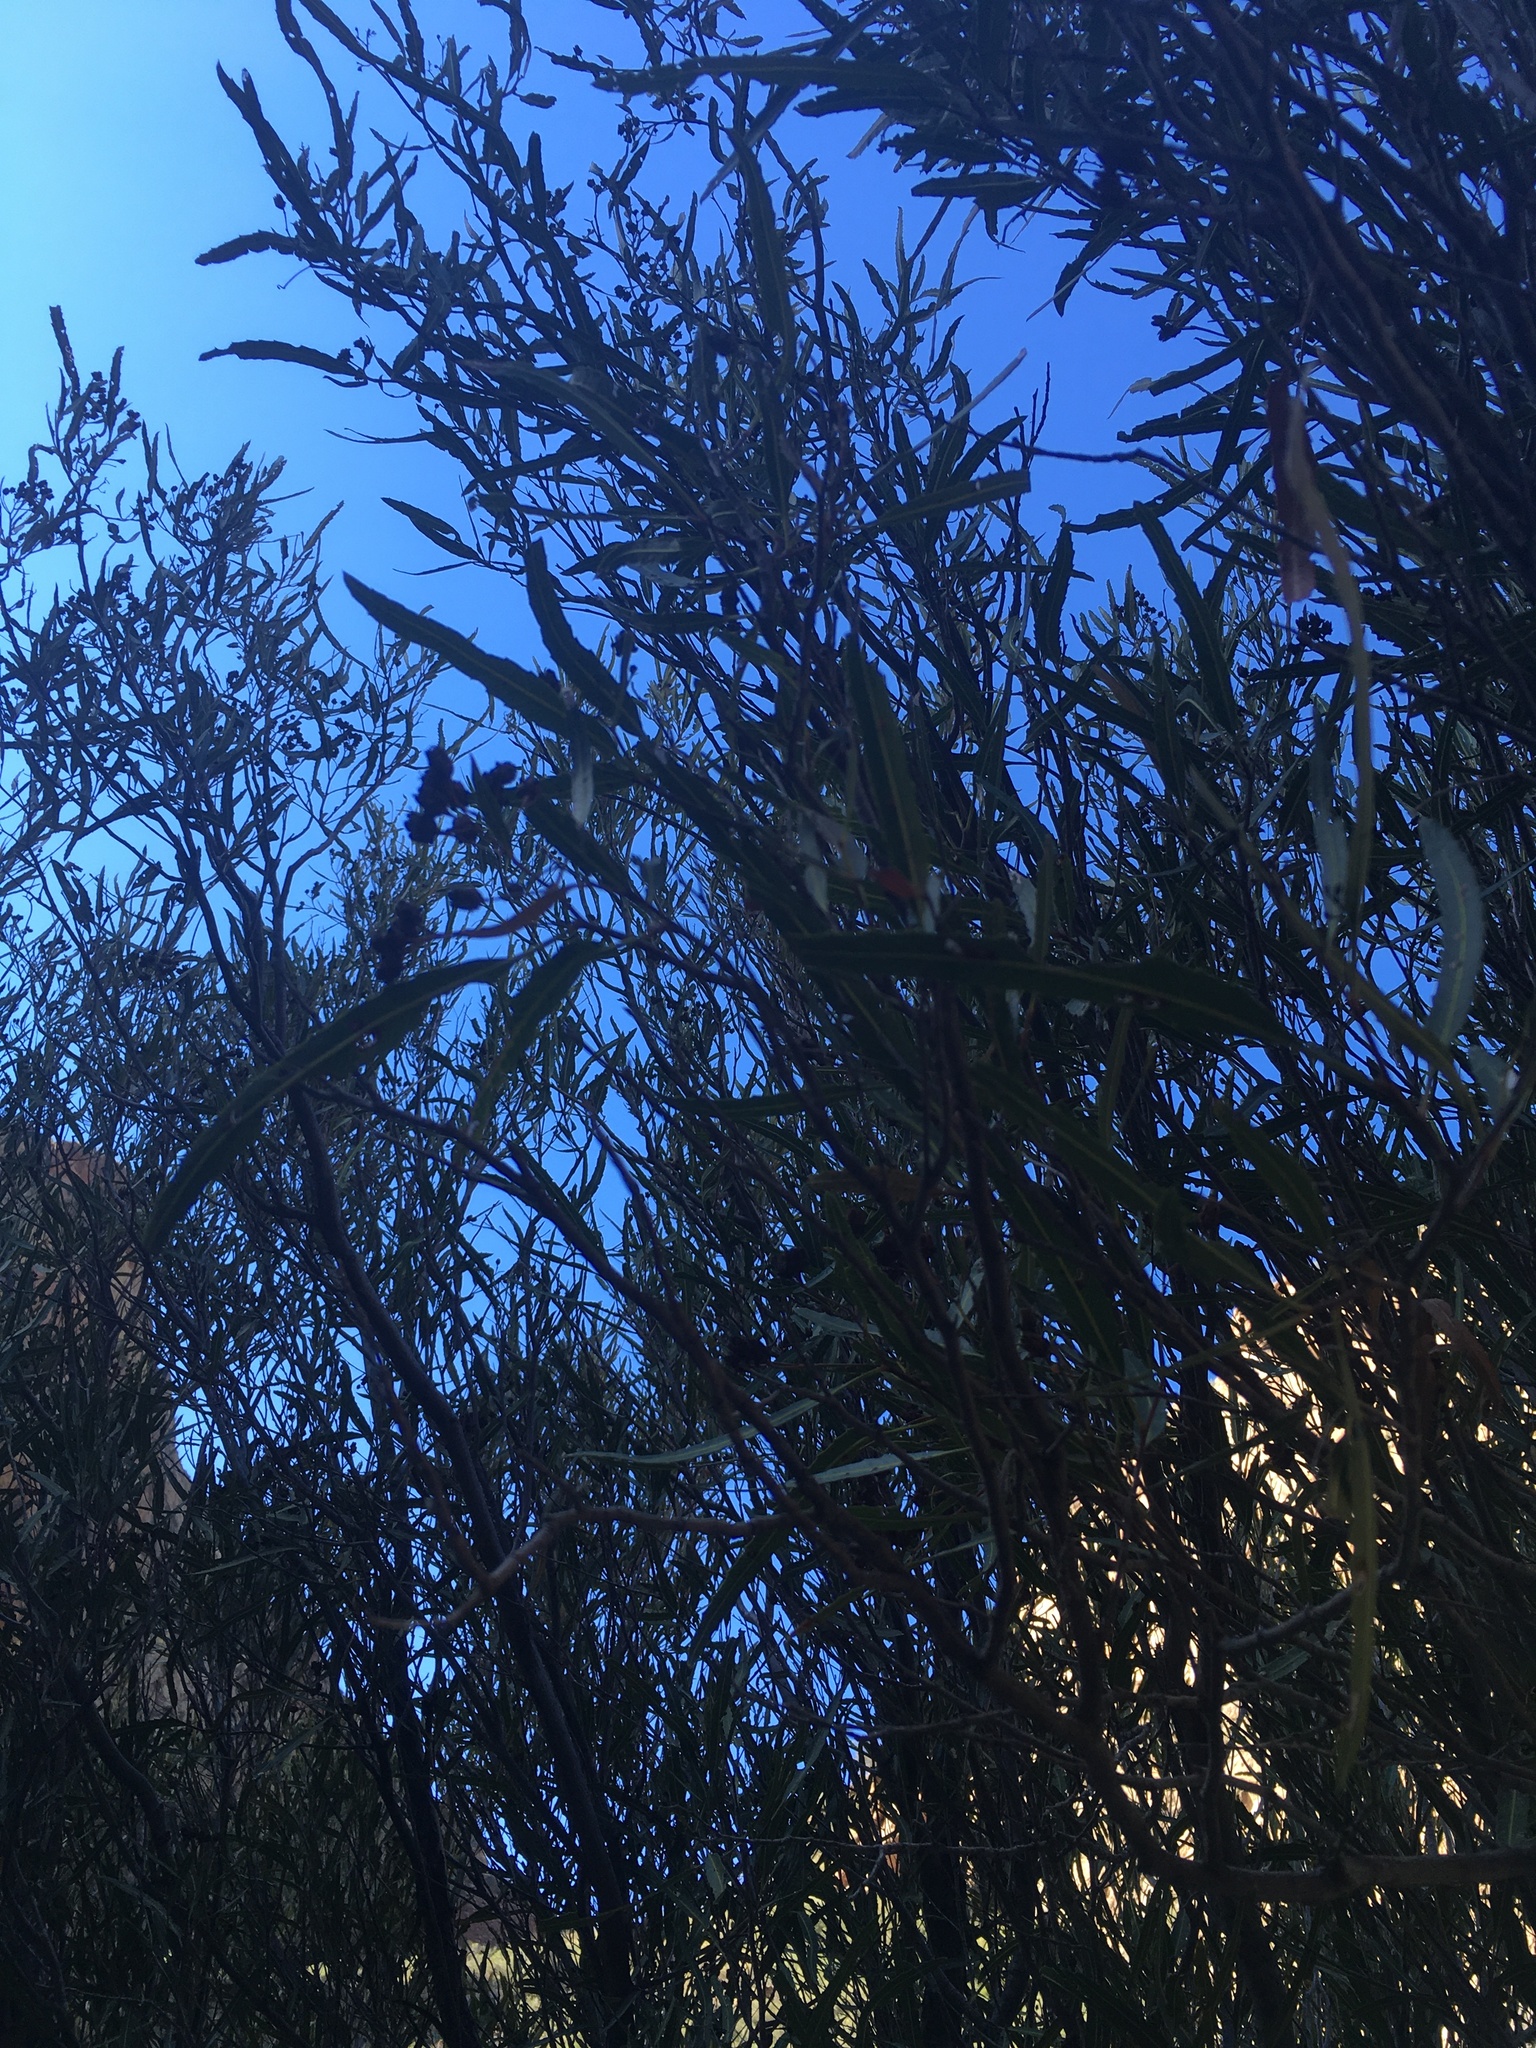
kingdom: Plantae
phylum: Tracheophyta
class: Magnoliopsida
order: Rosales
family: Rosaceae
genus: Vauquelinia
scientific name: Vauquelinia corymbosa
